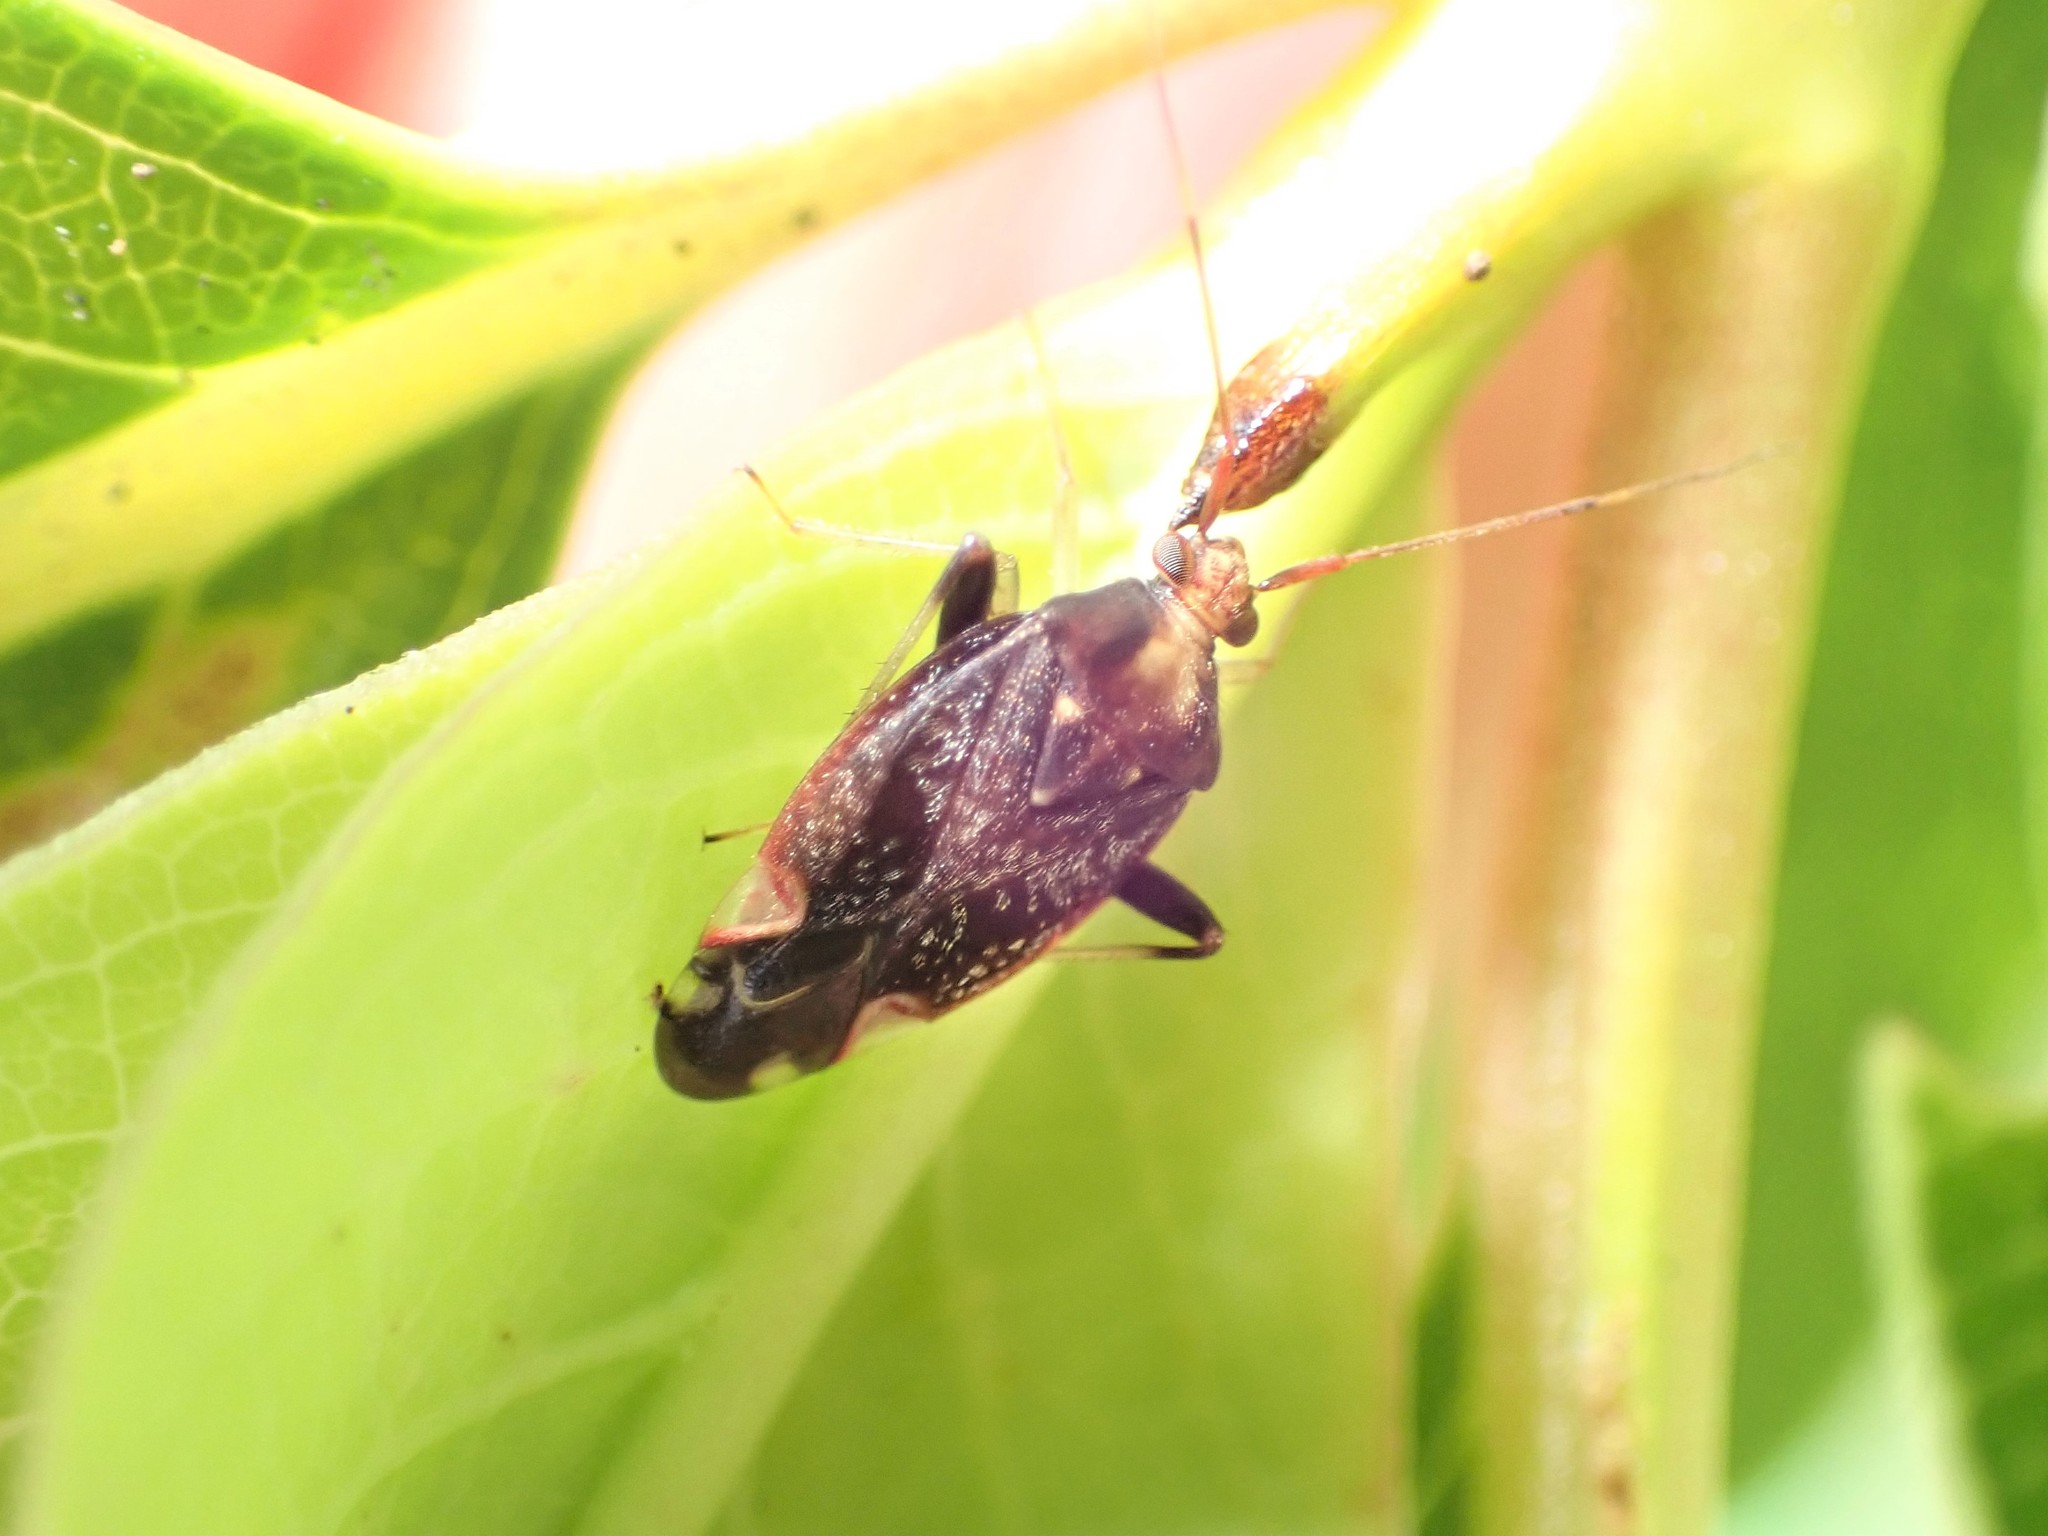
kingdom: Animalia
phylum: Arthropoda
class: Insecta
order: Hemiptera
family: Miridae
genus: Chinamiris
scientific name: Chinamiris indeclivis
